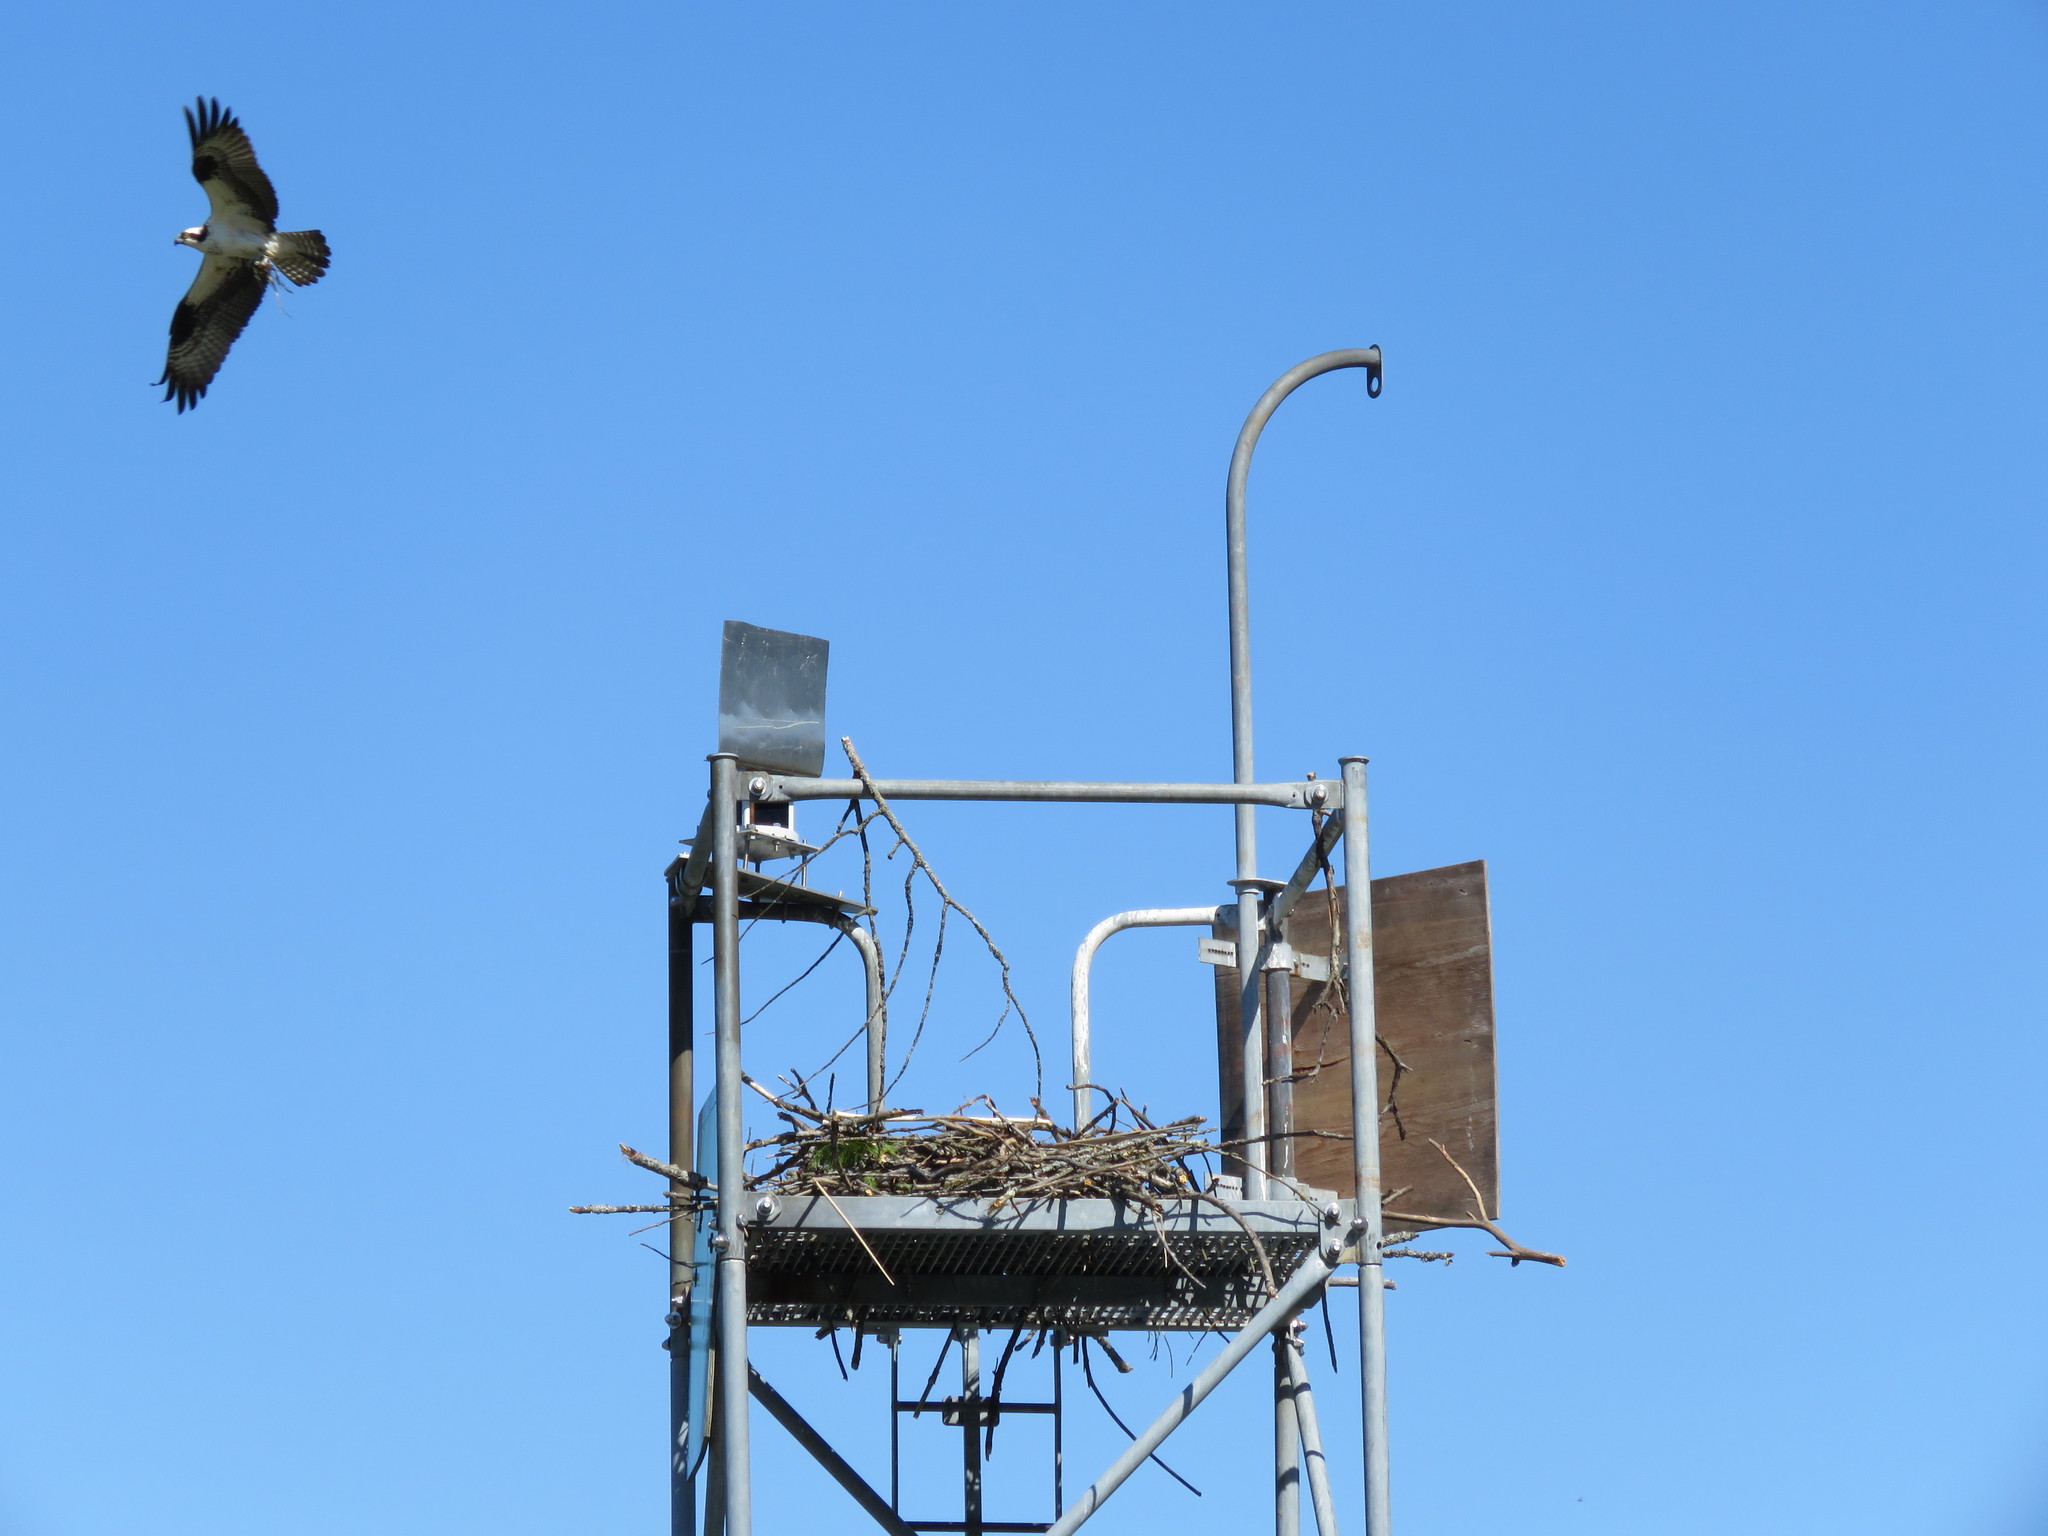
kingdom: Animalia
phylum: Chordata
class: Aves
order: Accipitriformes
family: Pandionidae
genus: Pandion
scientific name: Pandion haliaetus
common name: Osprey
